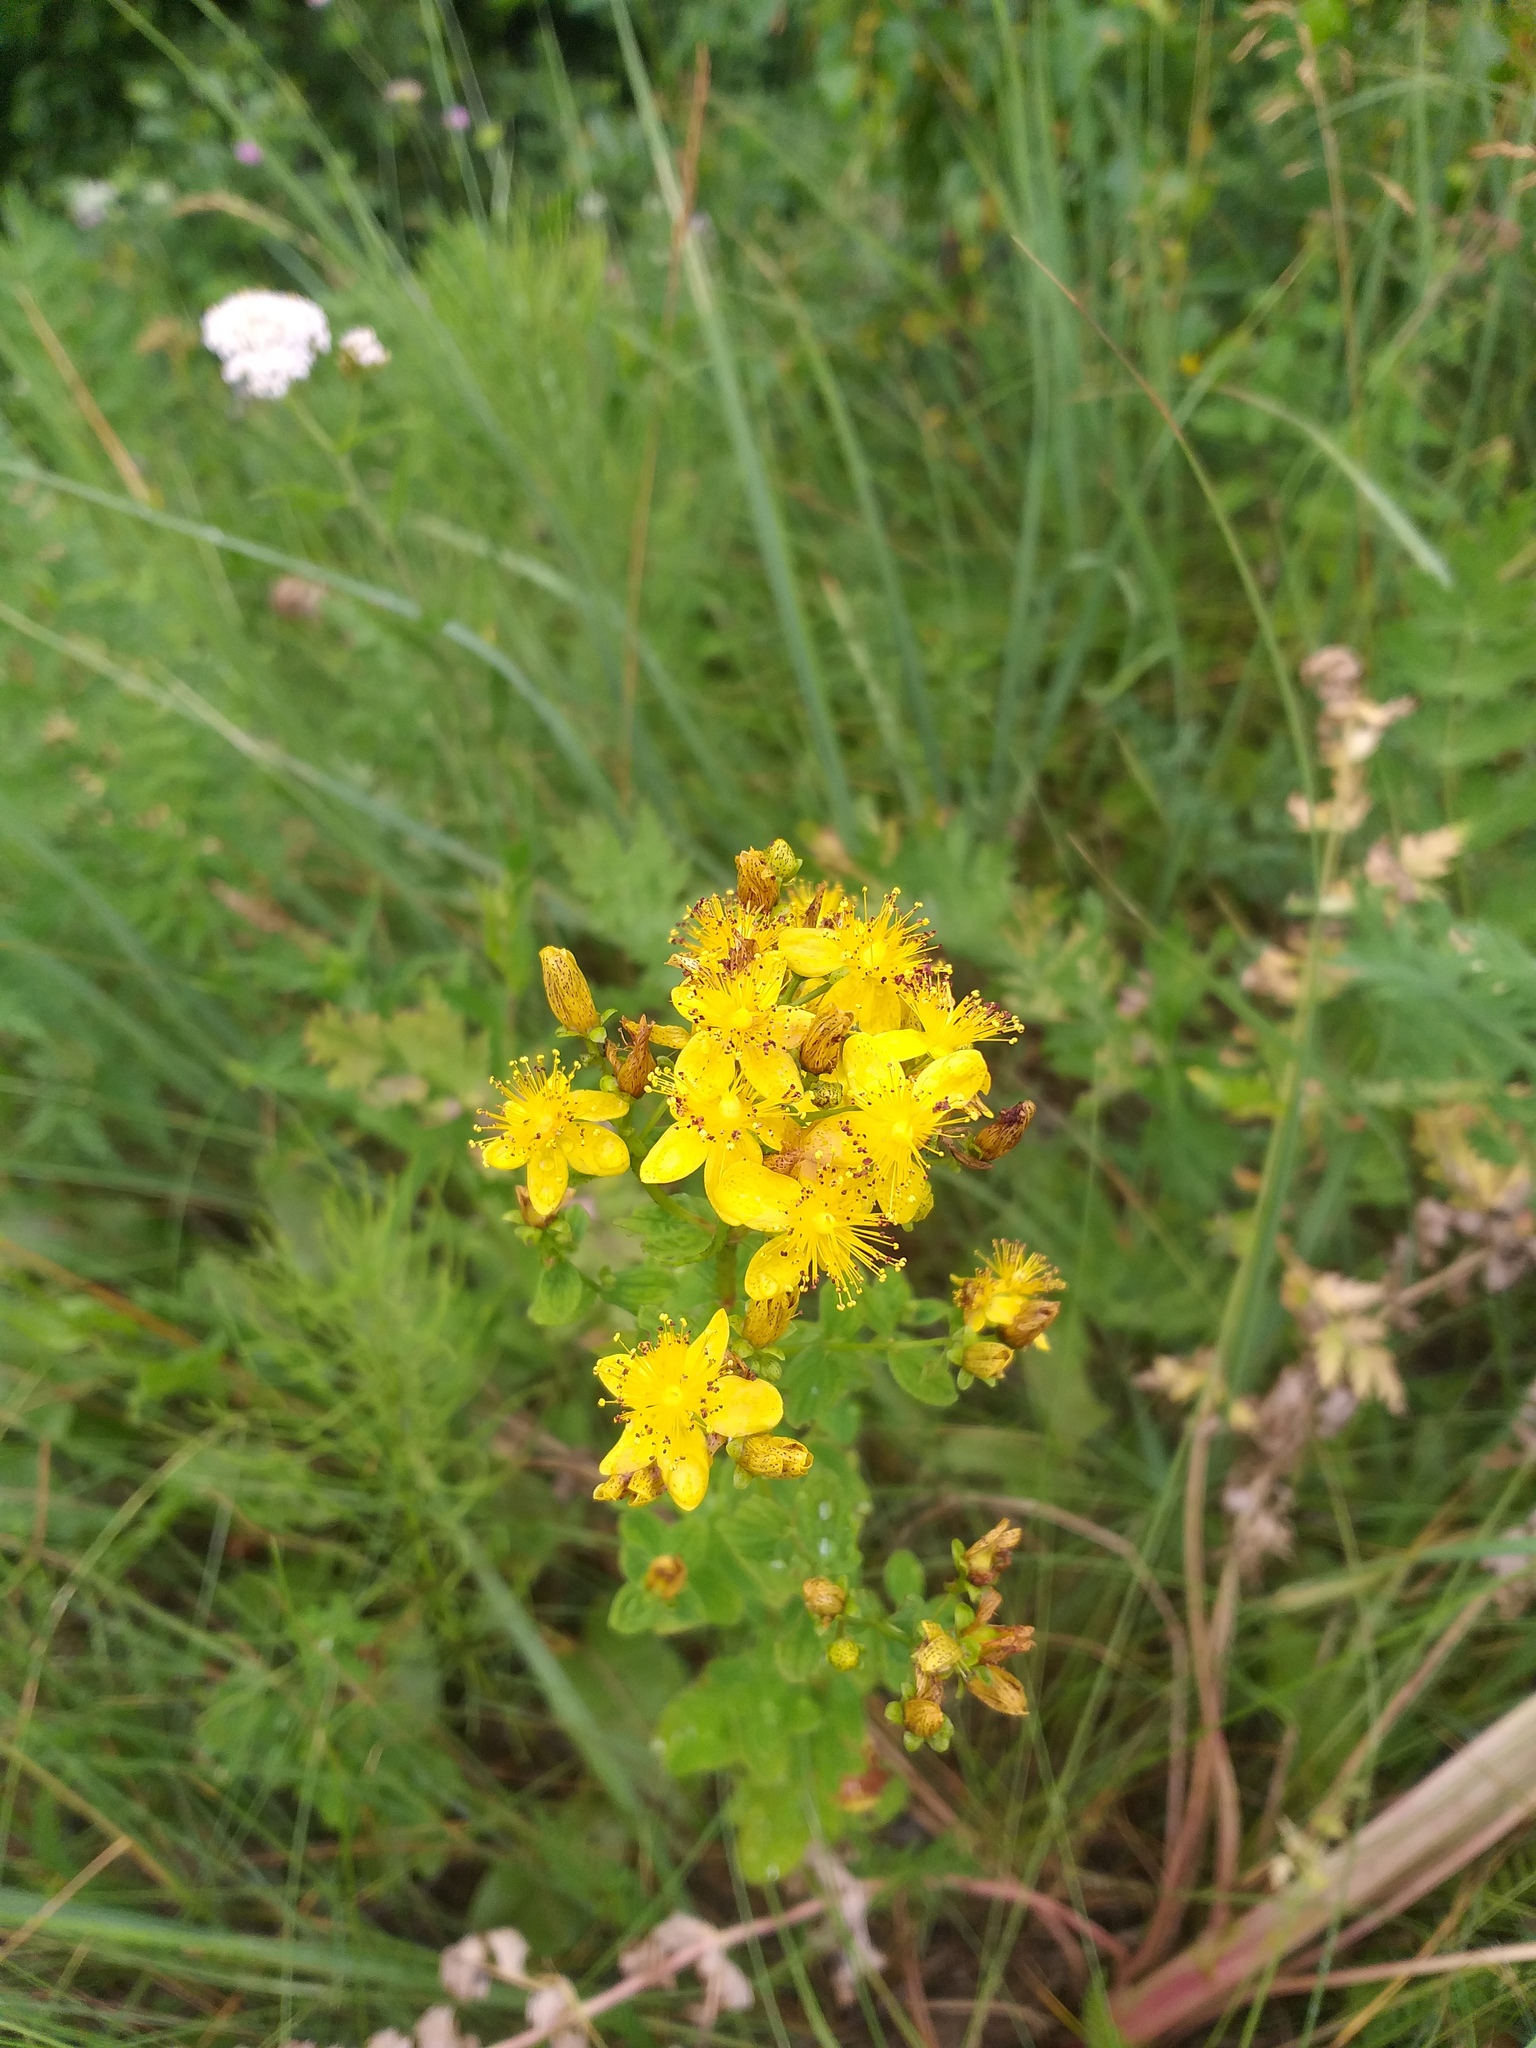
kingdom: Plantae
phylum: Tracheophyta
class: Magnoliopsida
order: Malpighiales
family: Hypericaceae
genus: Hypericum
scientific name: Hypericum maculatum
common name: Imperforate st. john's-wort
